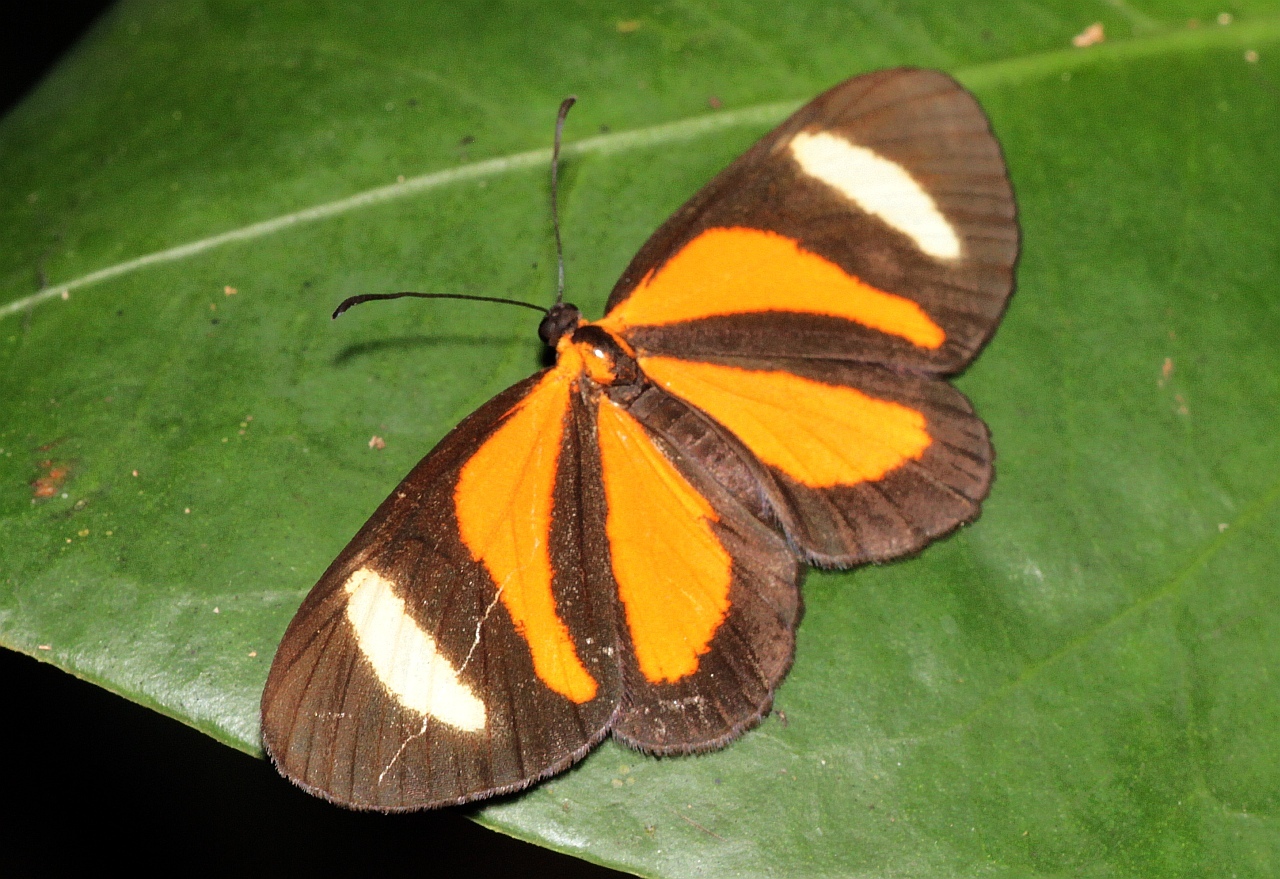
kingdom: Animalia
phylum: Arthropoda
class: Insecta
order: Lepidoptera
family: Riodinidae
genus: Cartea
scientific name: Cartea vitula
